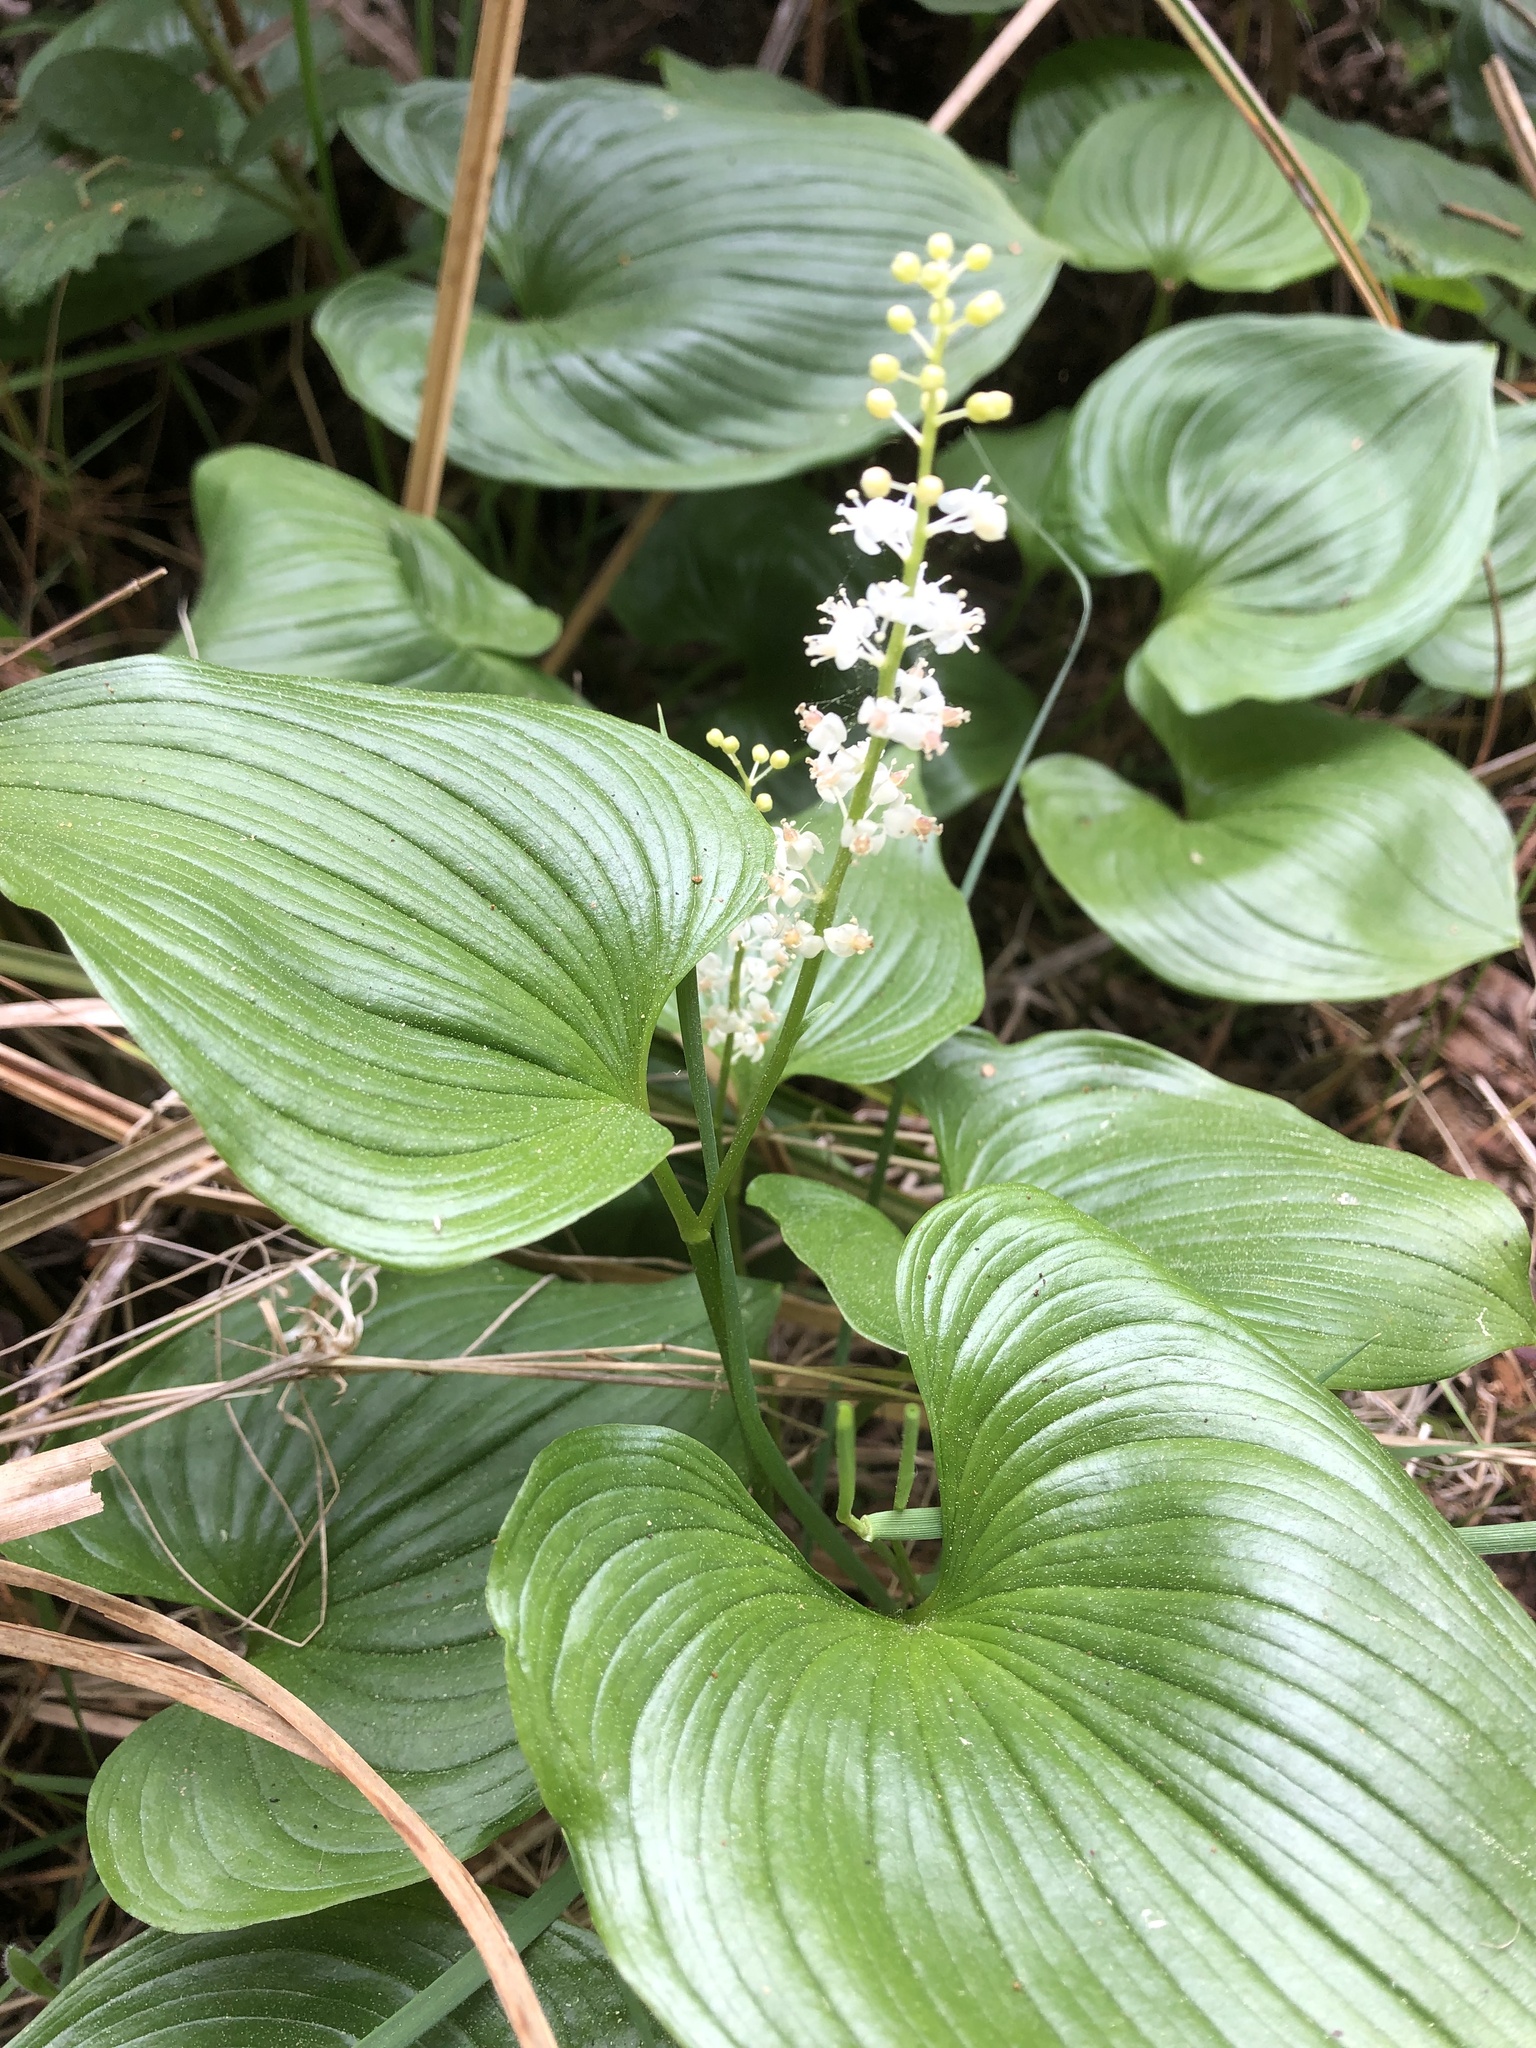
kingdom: Plantae
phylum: Tracheophyta
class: Liliopsida
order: Asparagales
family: Asparagaceae
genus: Maianthemum
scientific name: Maianthemum dilatatum
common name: False lily-of-the-valley
